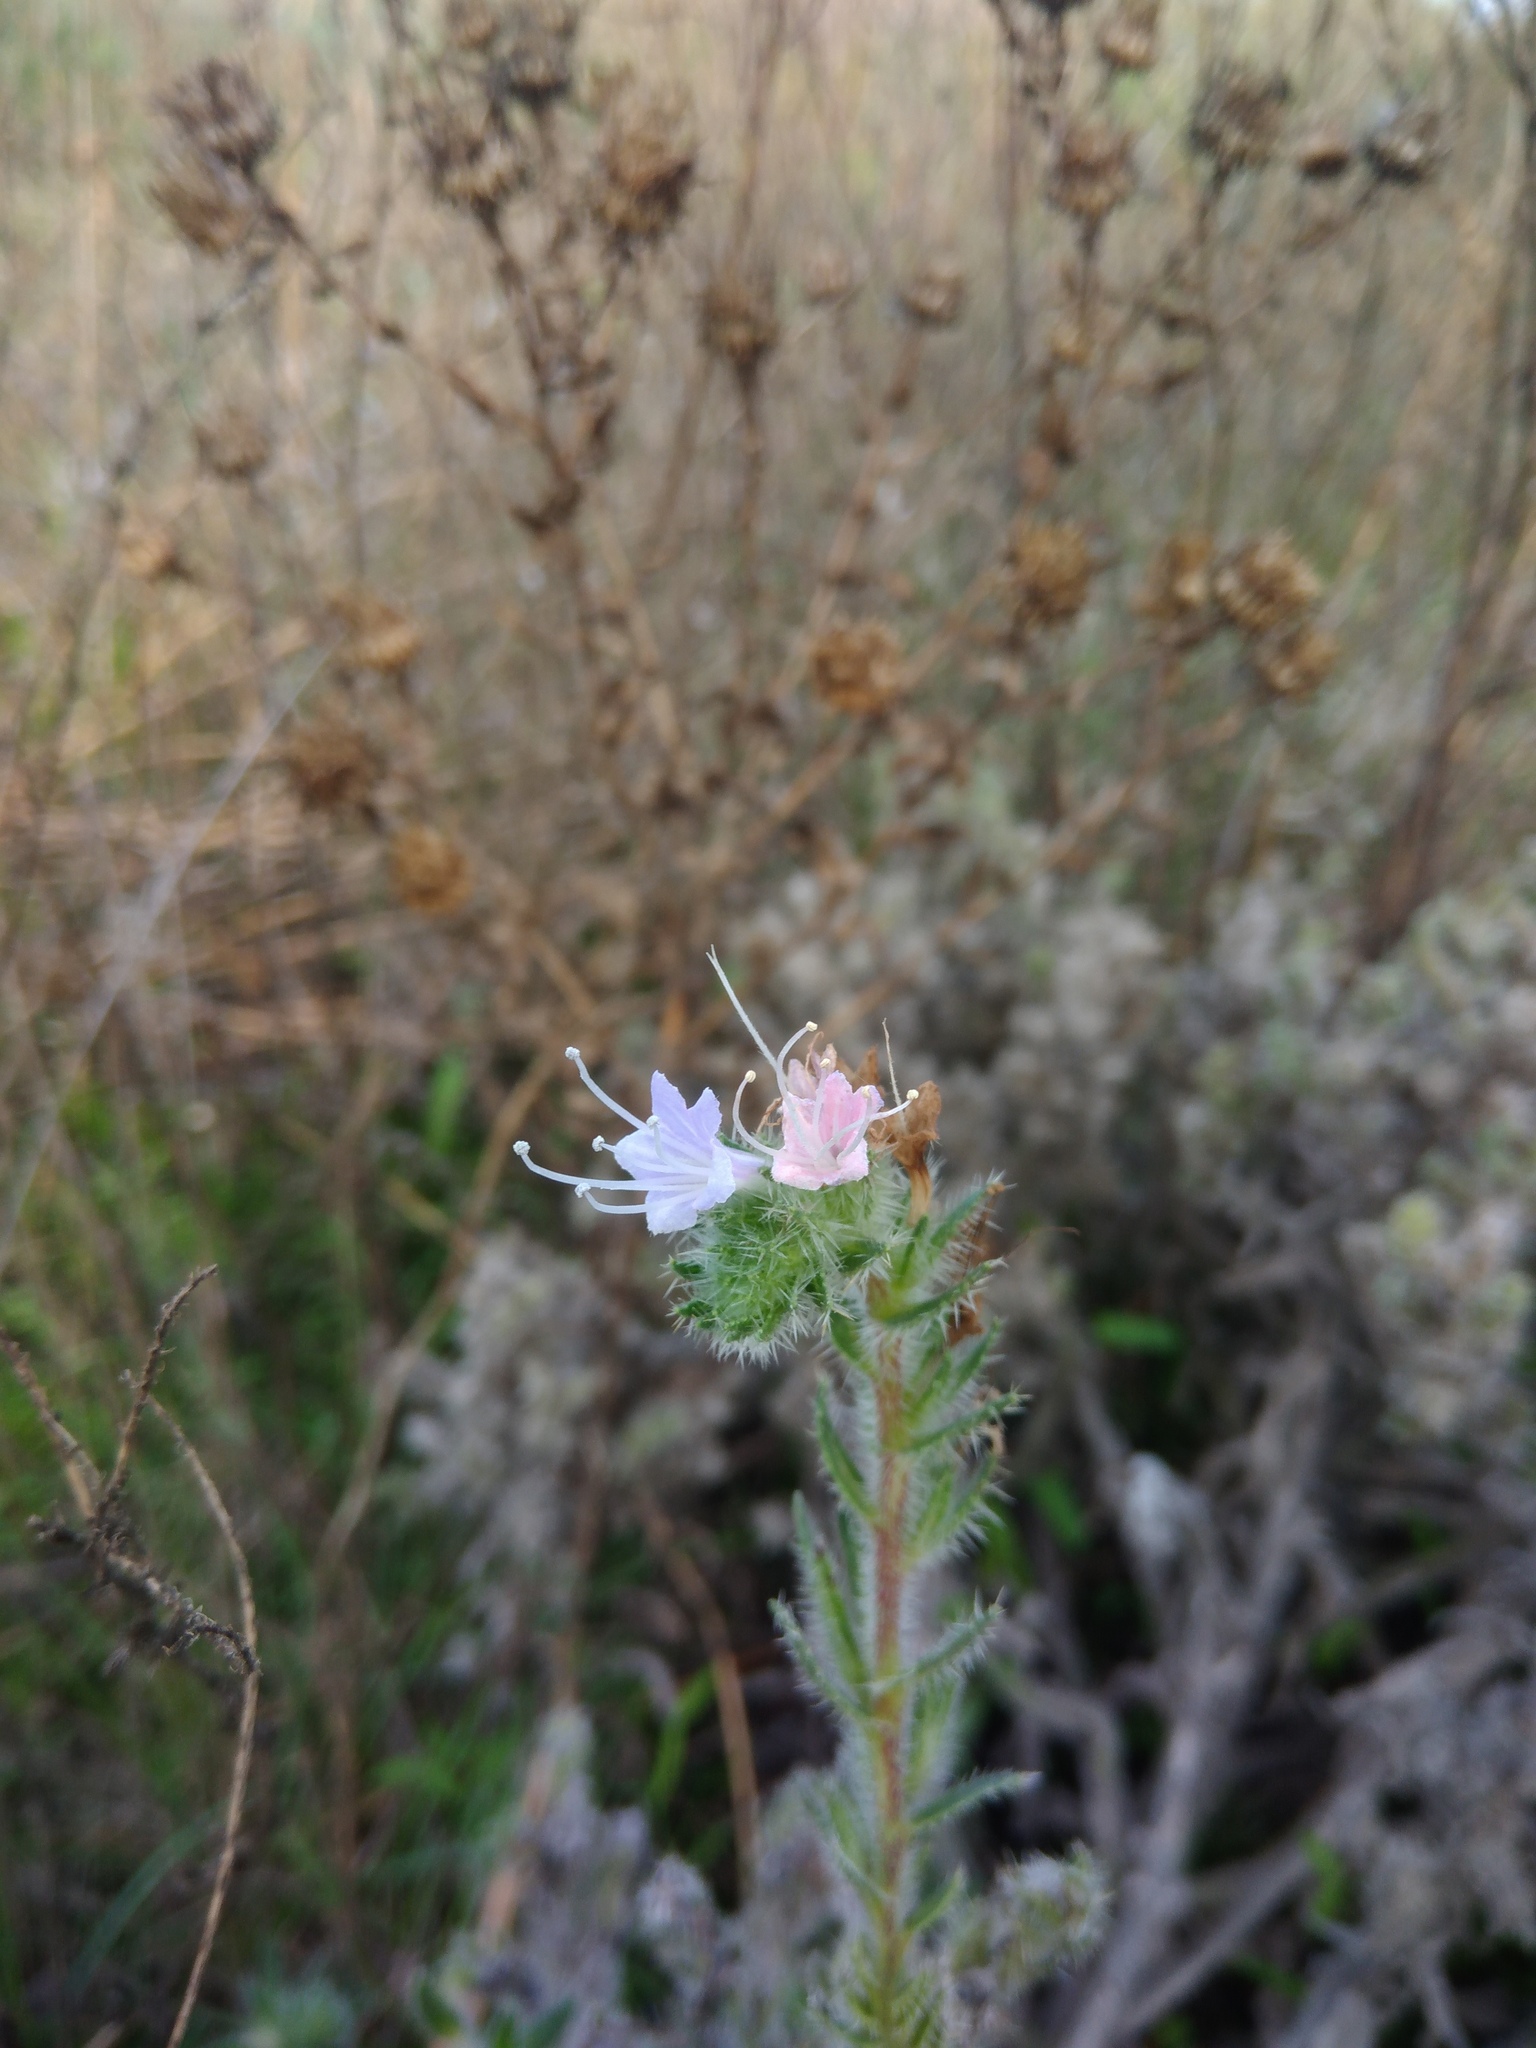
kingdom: Plantae
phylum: Tracheophyta
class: Magnoliopsida
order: Boraginales
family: Boraginaceae
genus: Echium
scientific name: Echium vulgare
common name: Common viper's bugloss
